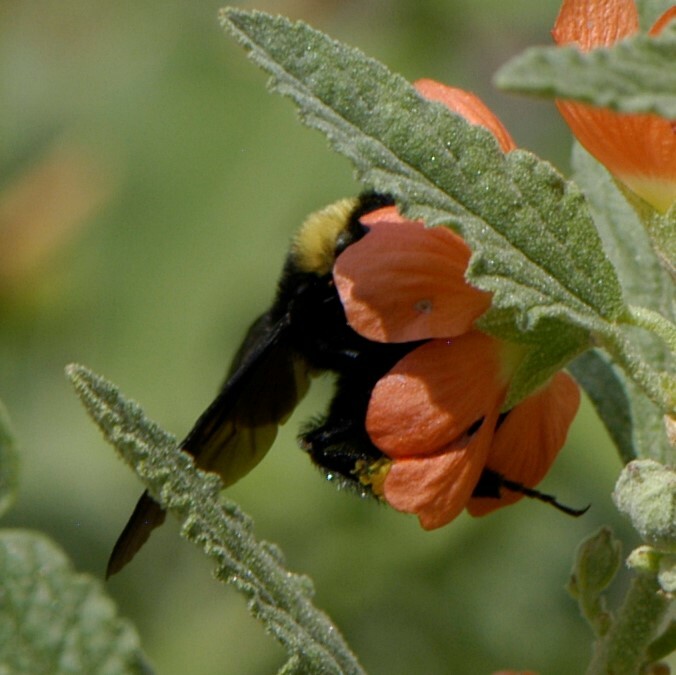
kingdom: Animalia
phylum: Arthropoda
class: Insecta
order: Hymenoptera
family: Apidae
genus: Bombus
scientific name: Bombus pensylvanicus
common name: Bumble bee
